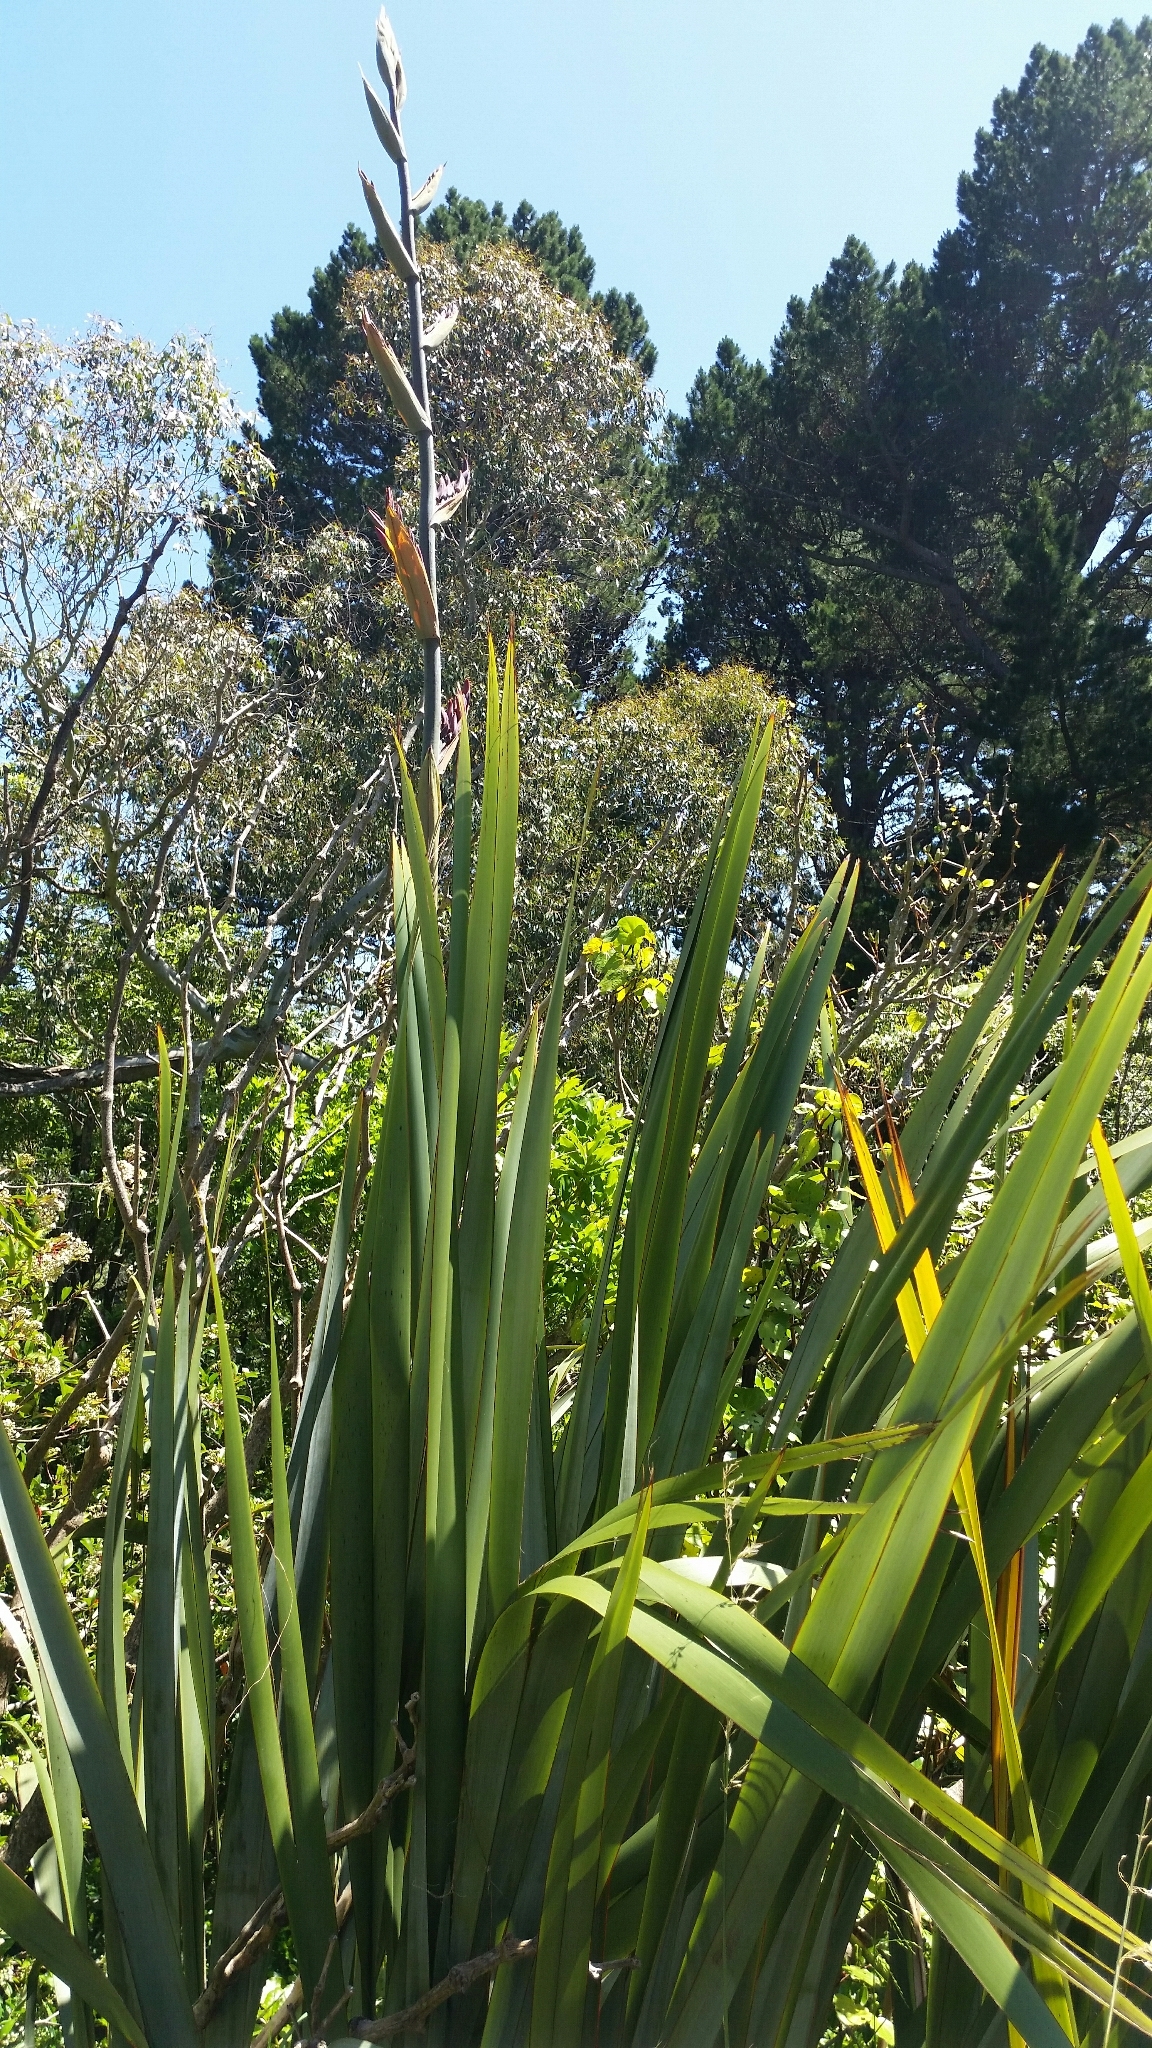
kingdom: Plantae
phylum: Tracheophyta
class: Liliopsida
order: Asparagales
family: Asphodelaceae
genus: Phormium
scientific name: Phormium tenax
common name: New zealand flax
